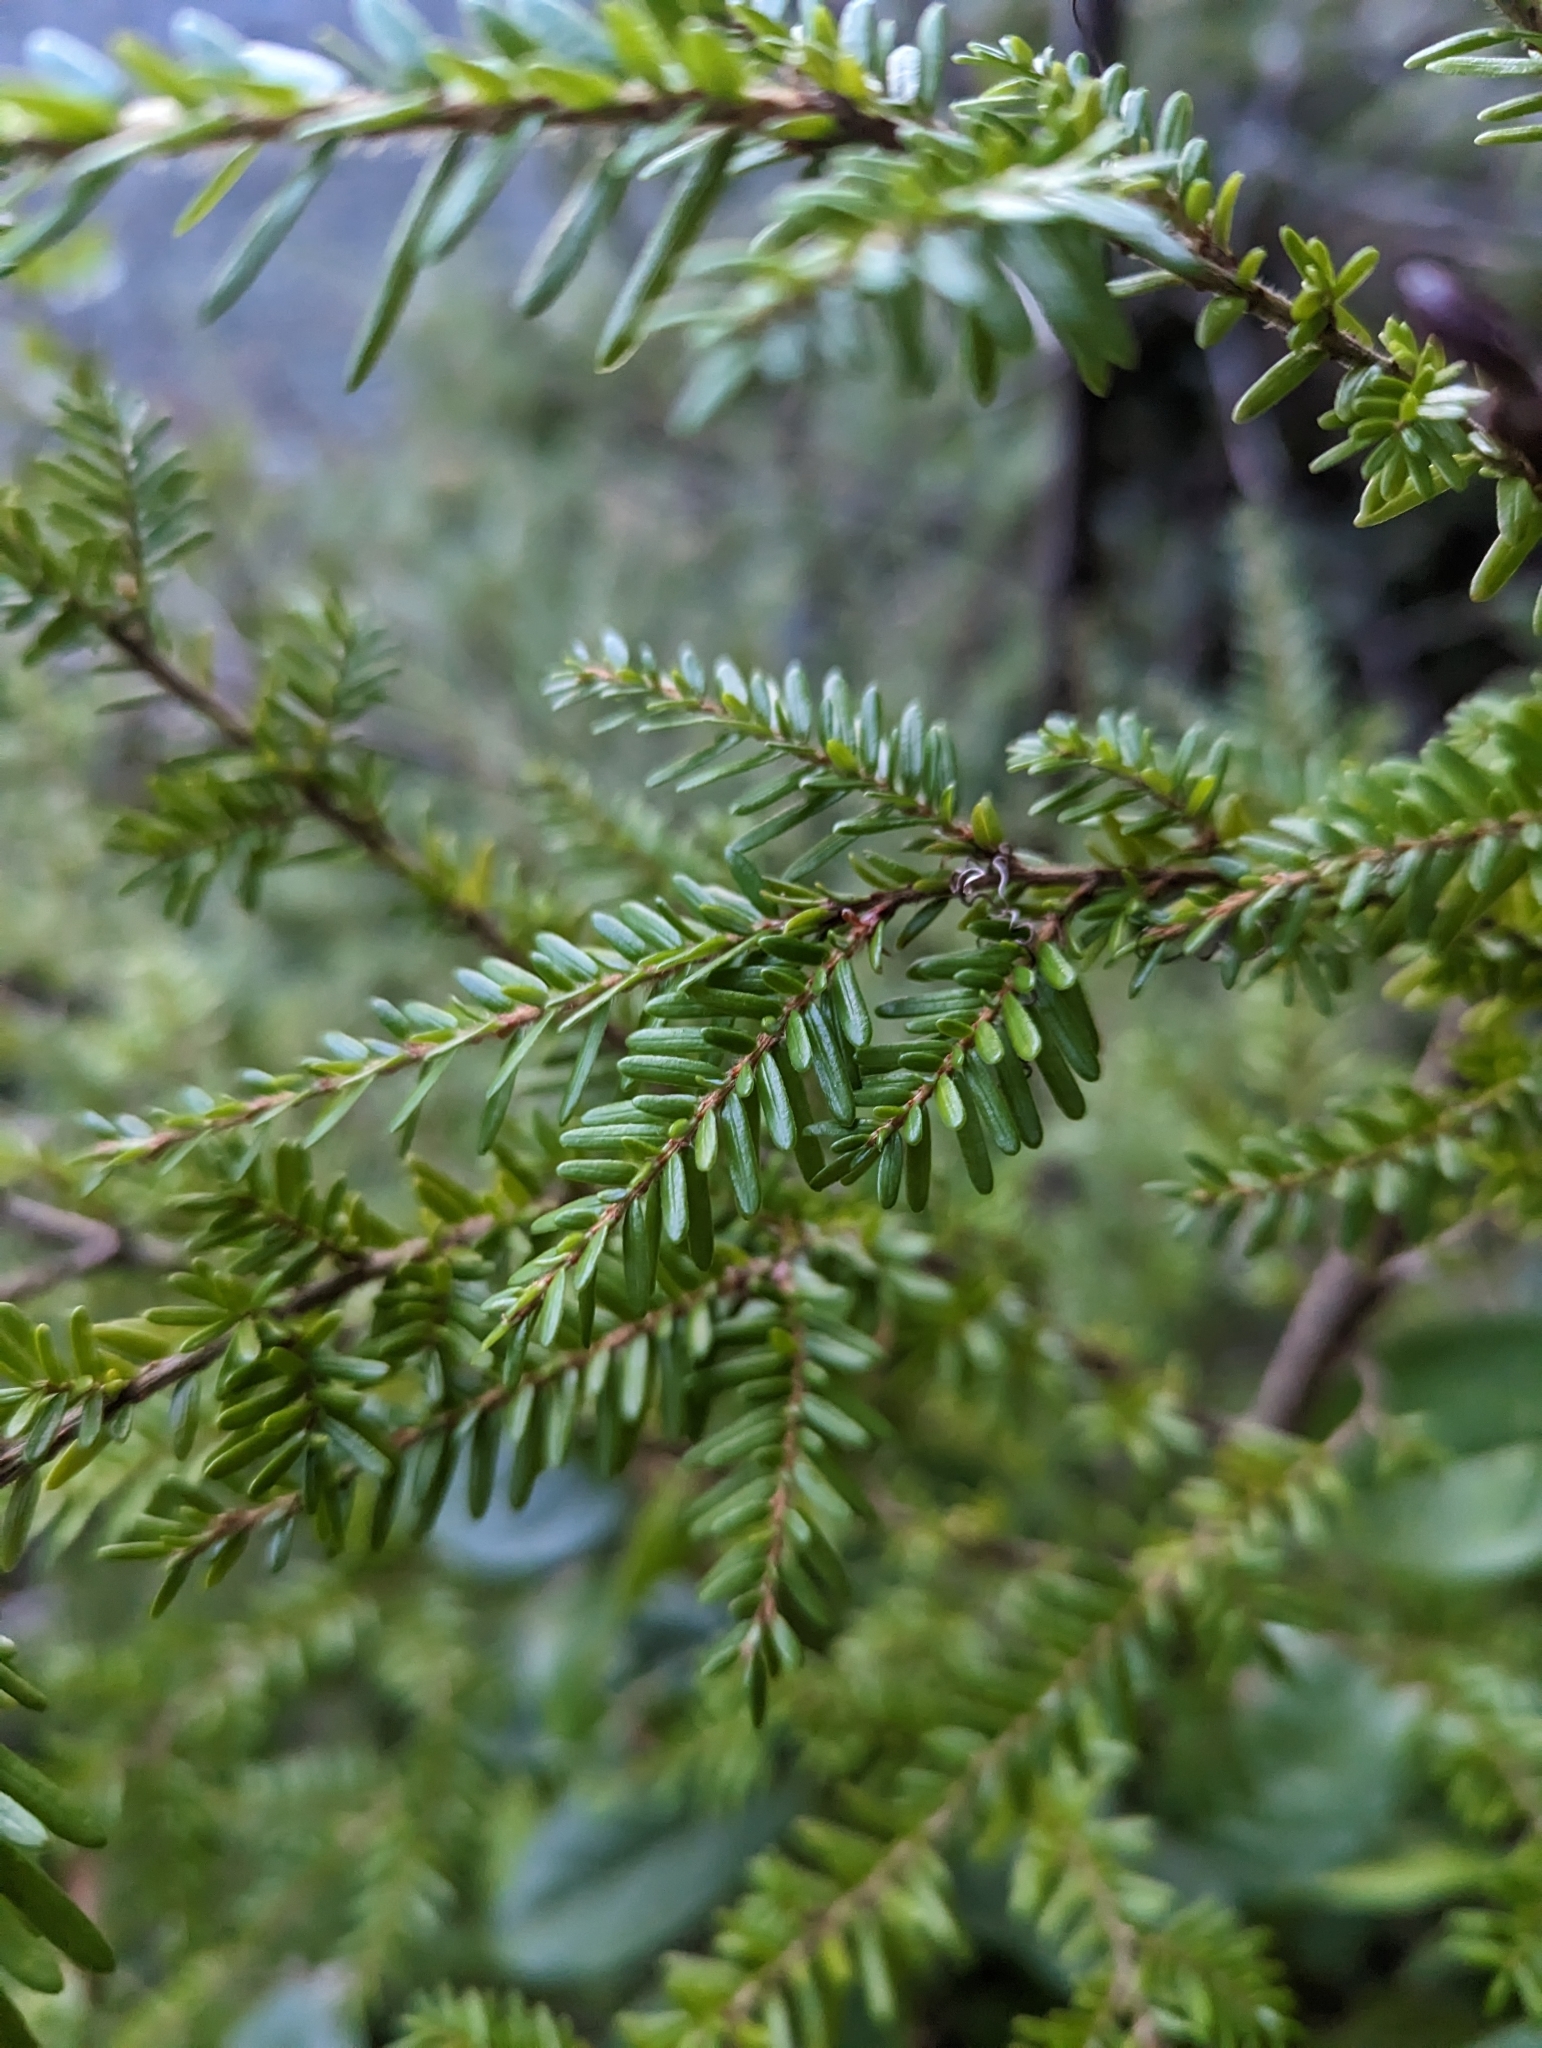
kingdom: Plantae
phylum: Tracheophyta
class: Pinopsida
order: Pinales
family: Pinaceae
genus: Tsuga
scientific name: Tsuga heterophylla
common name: Western hemlock
